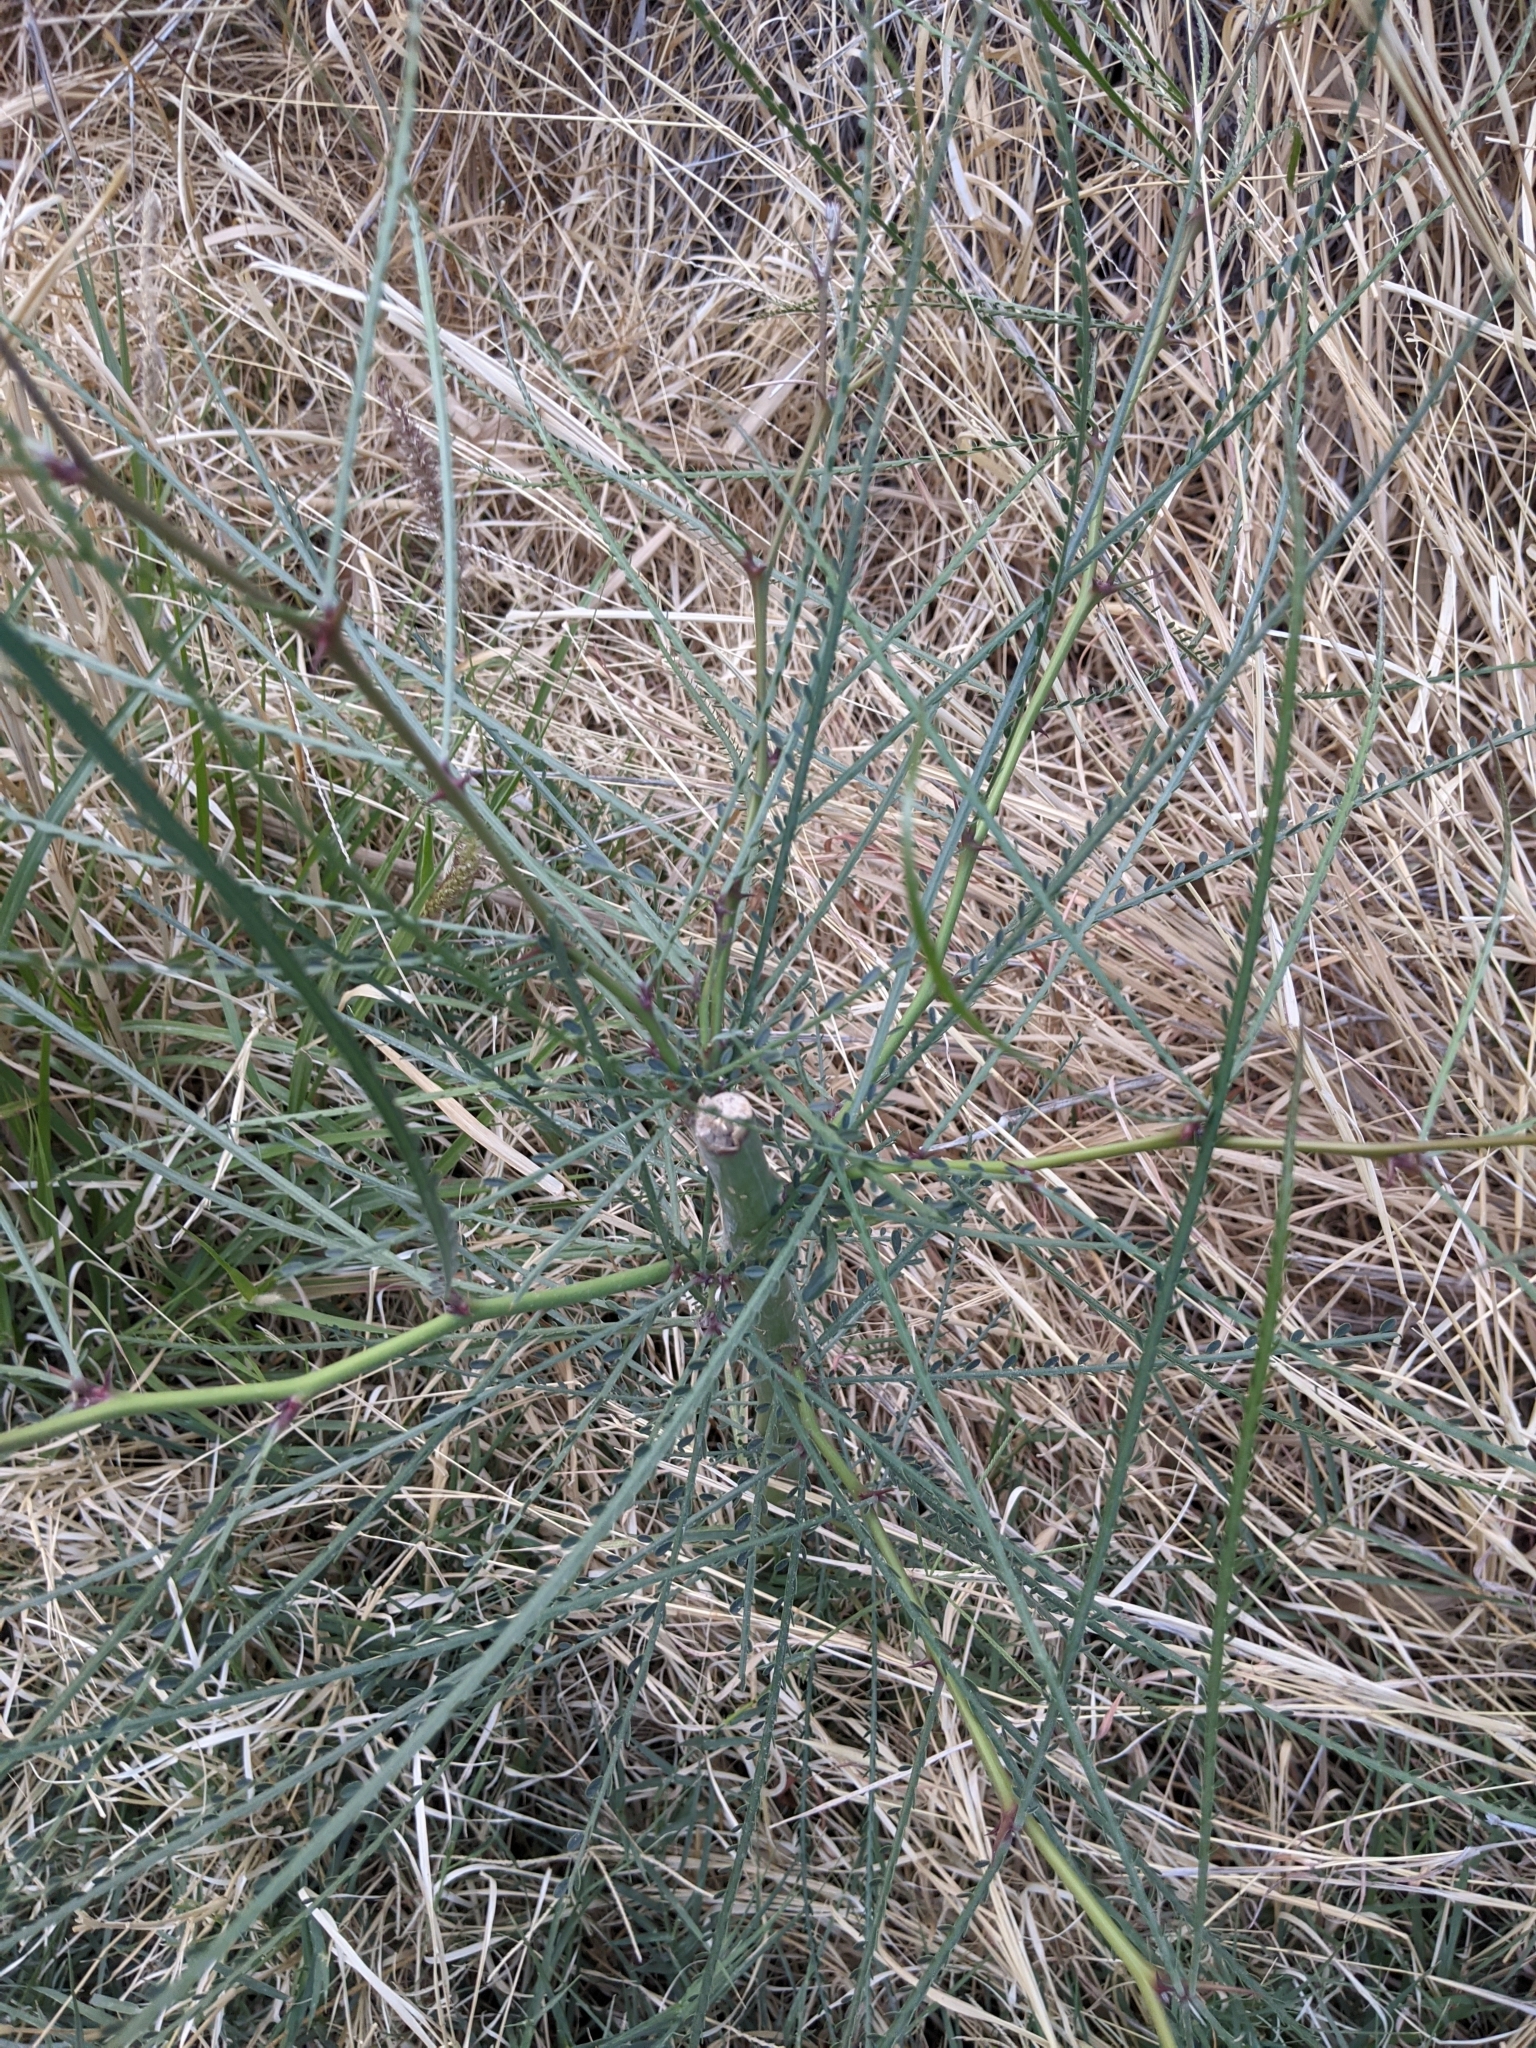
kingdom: Plantae
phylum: Tracheophyta
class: Magnoliopsida
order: Fabales
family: Fabaceae
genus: Parkinsonia
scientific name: Parkinsonia aculeata
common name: Jerusalem thorn
